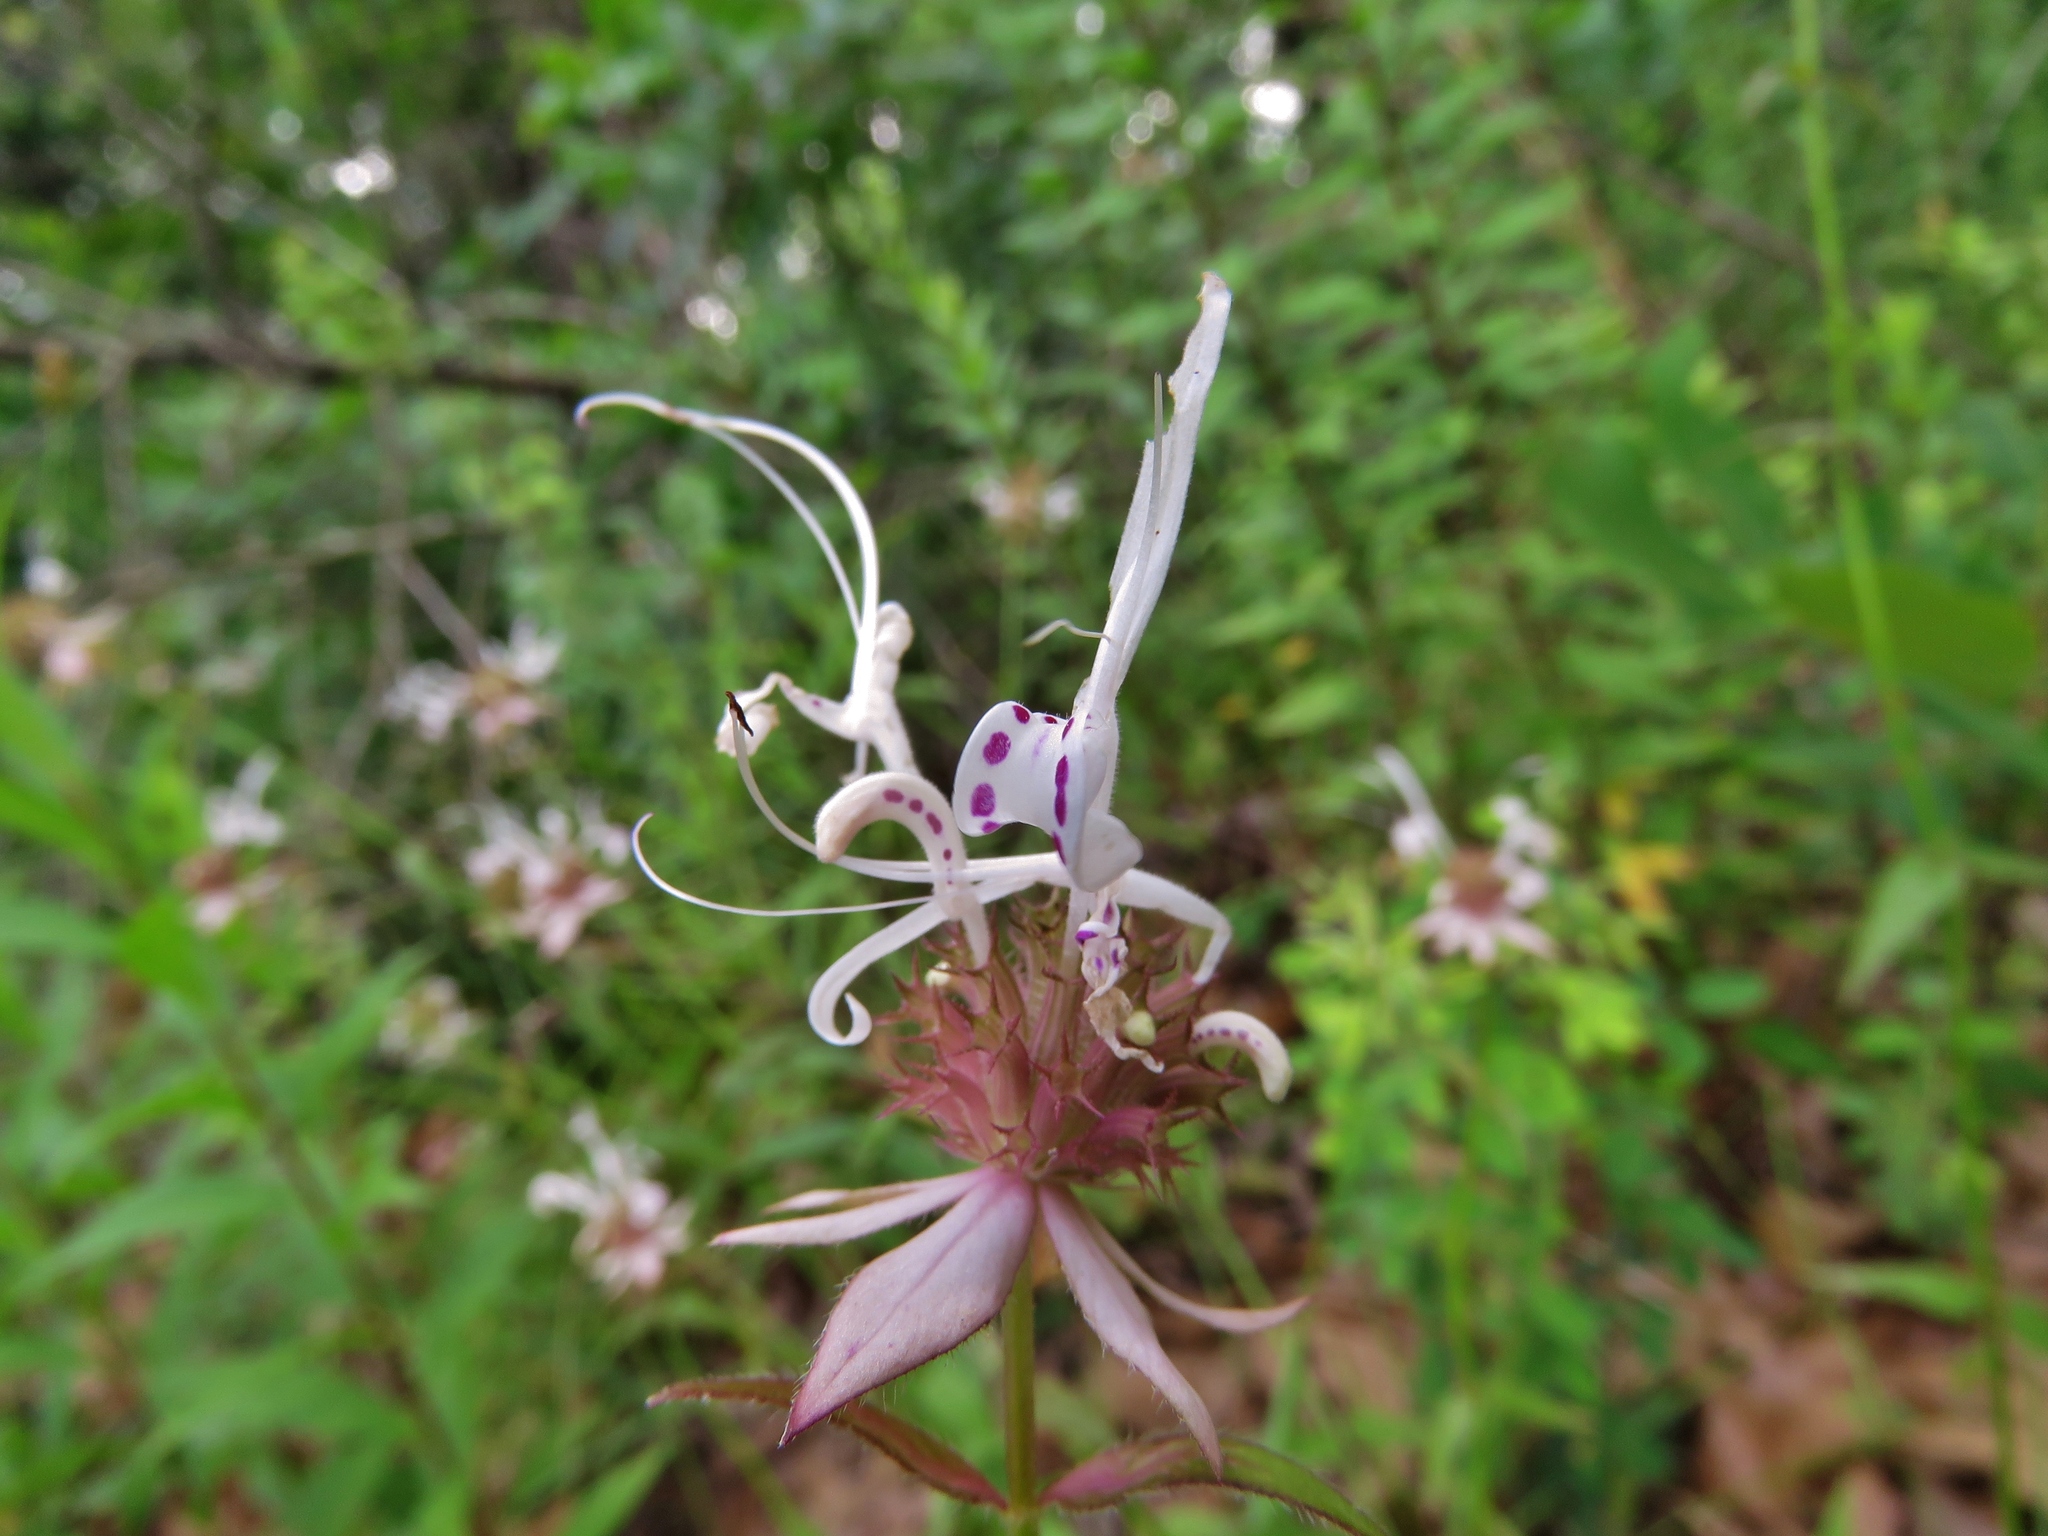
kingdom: Plantae
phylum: Tracheophyta
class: Magnoliopsida
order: Lamiales
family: Lamiaceae
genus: Monarda
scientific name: Monarda russeliana
